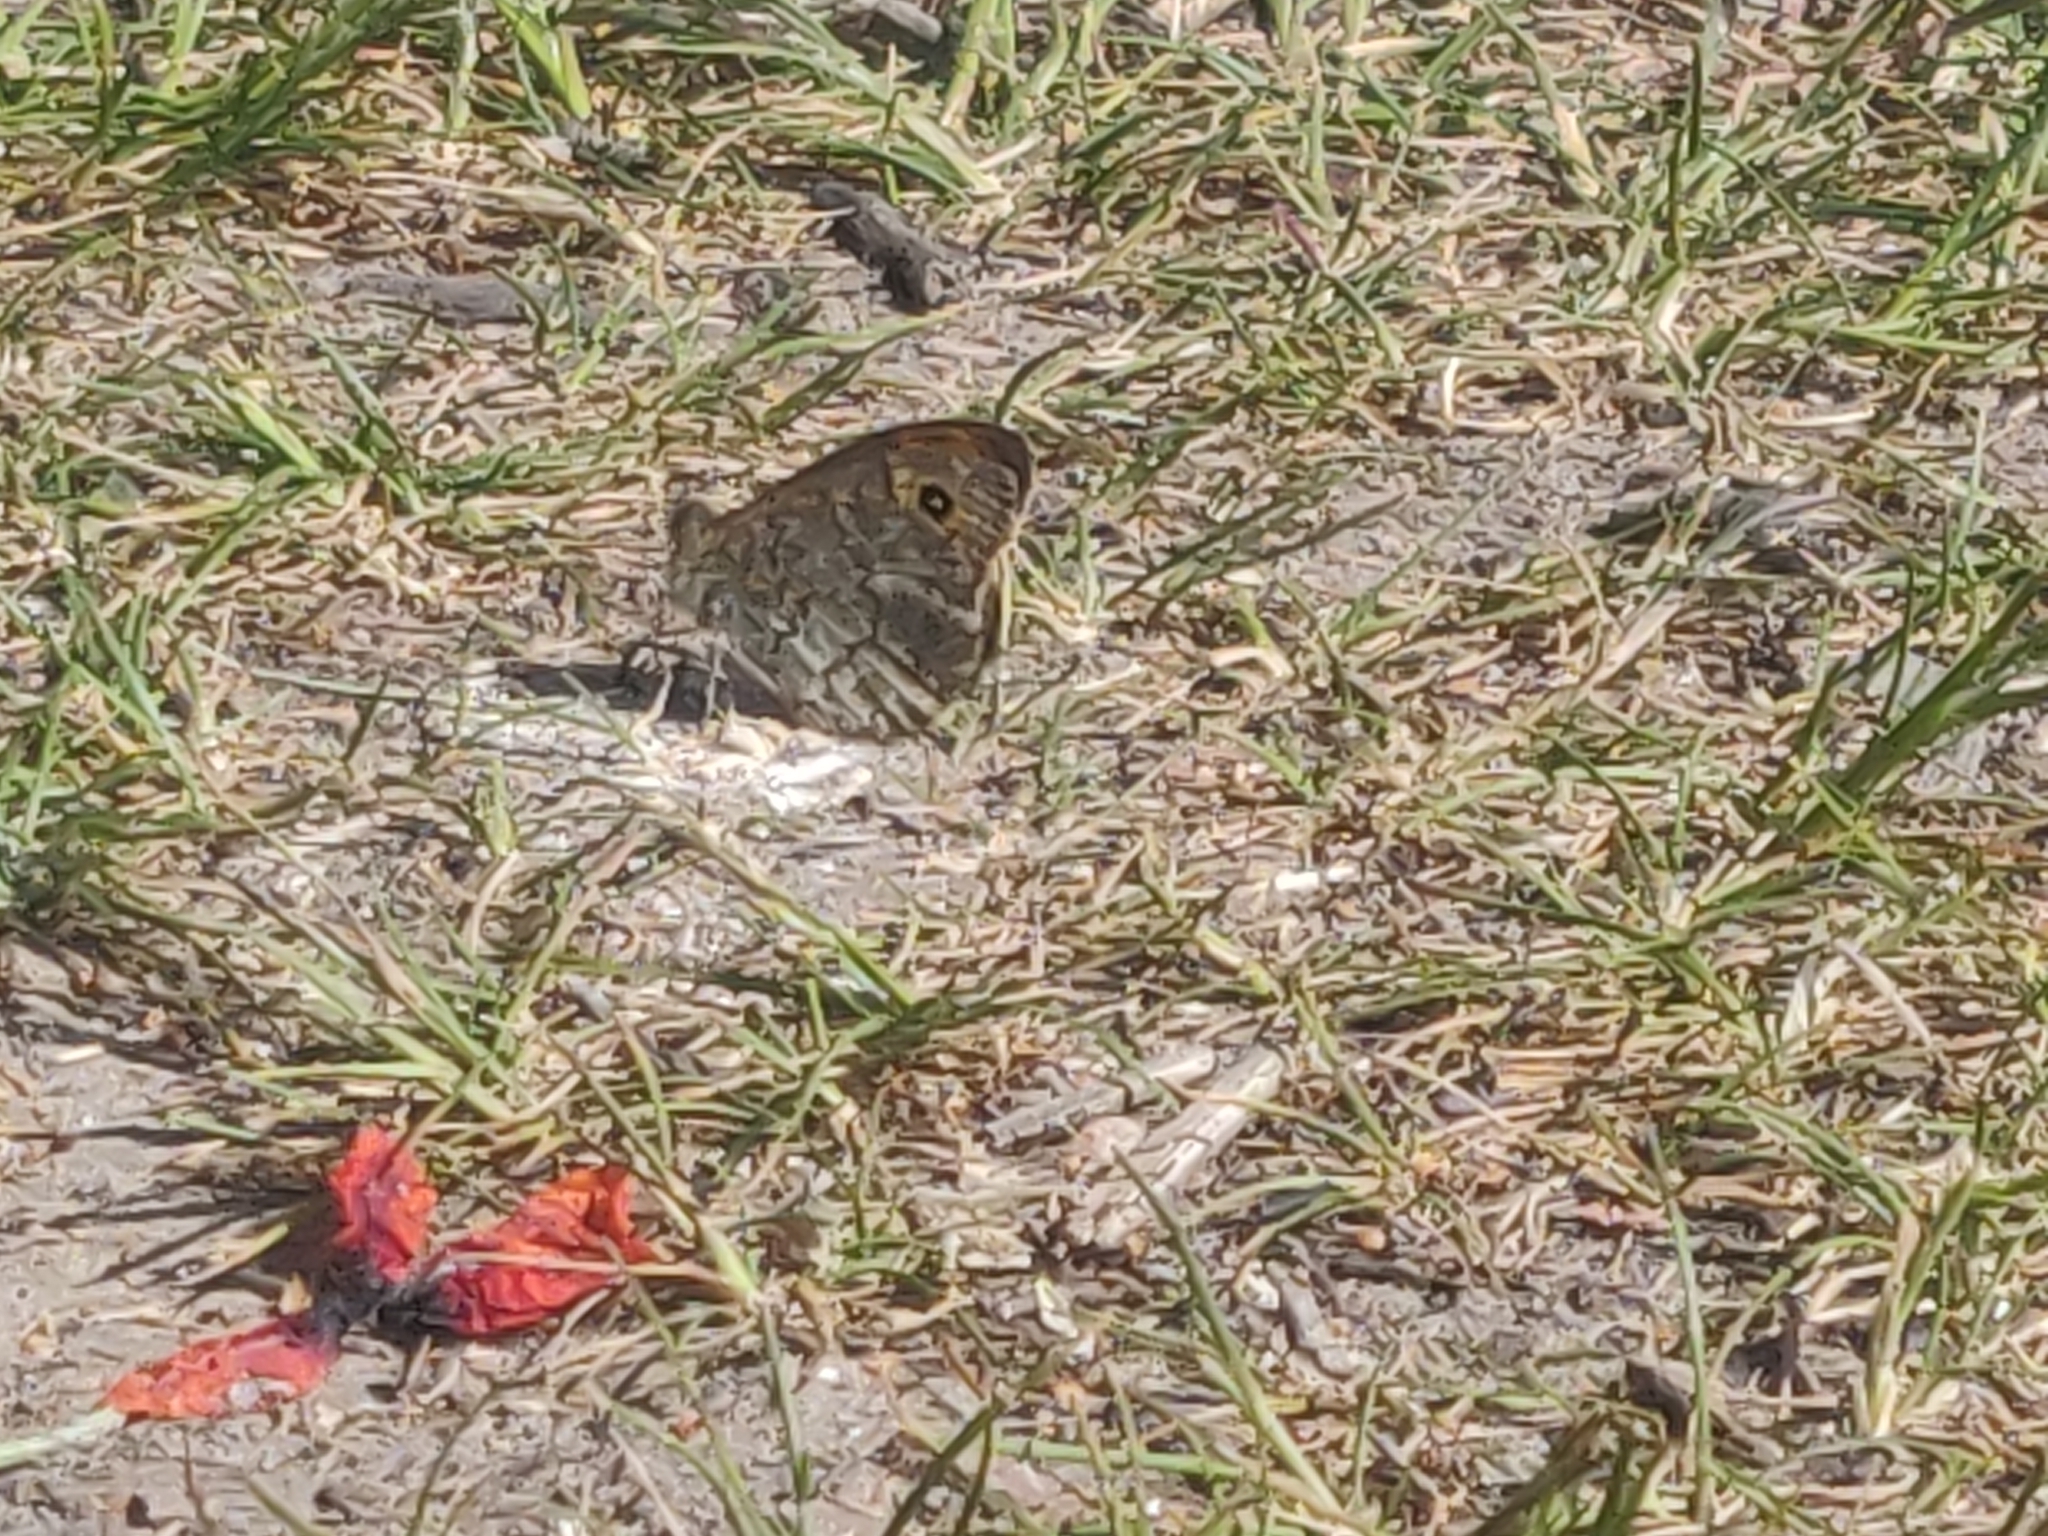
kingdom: Animalia
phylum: Arthropoda
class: Insecta
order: Lepidoptera
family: Nymphalidae
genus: Pararge
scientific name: Pararge Lasiommata megera
